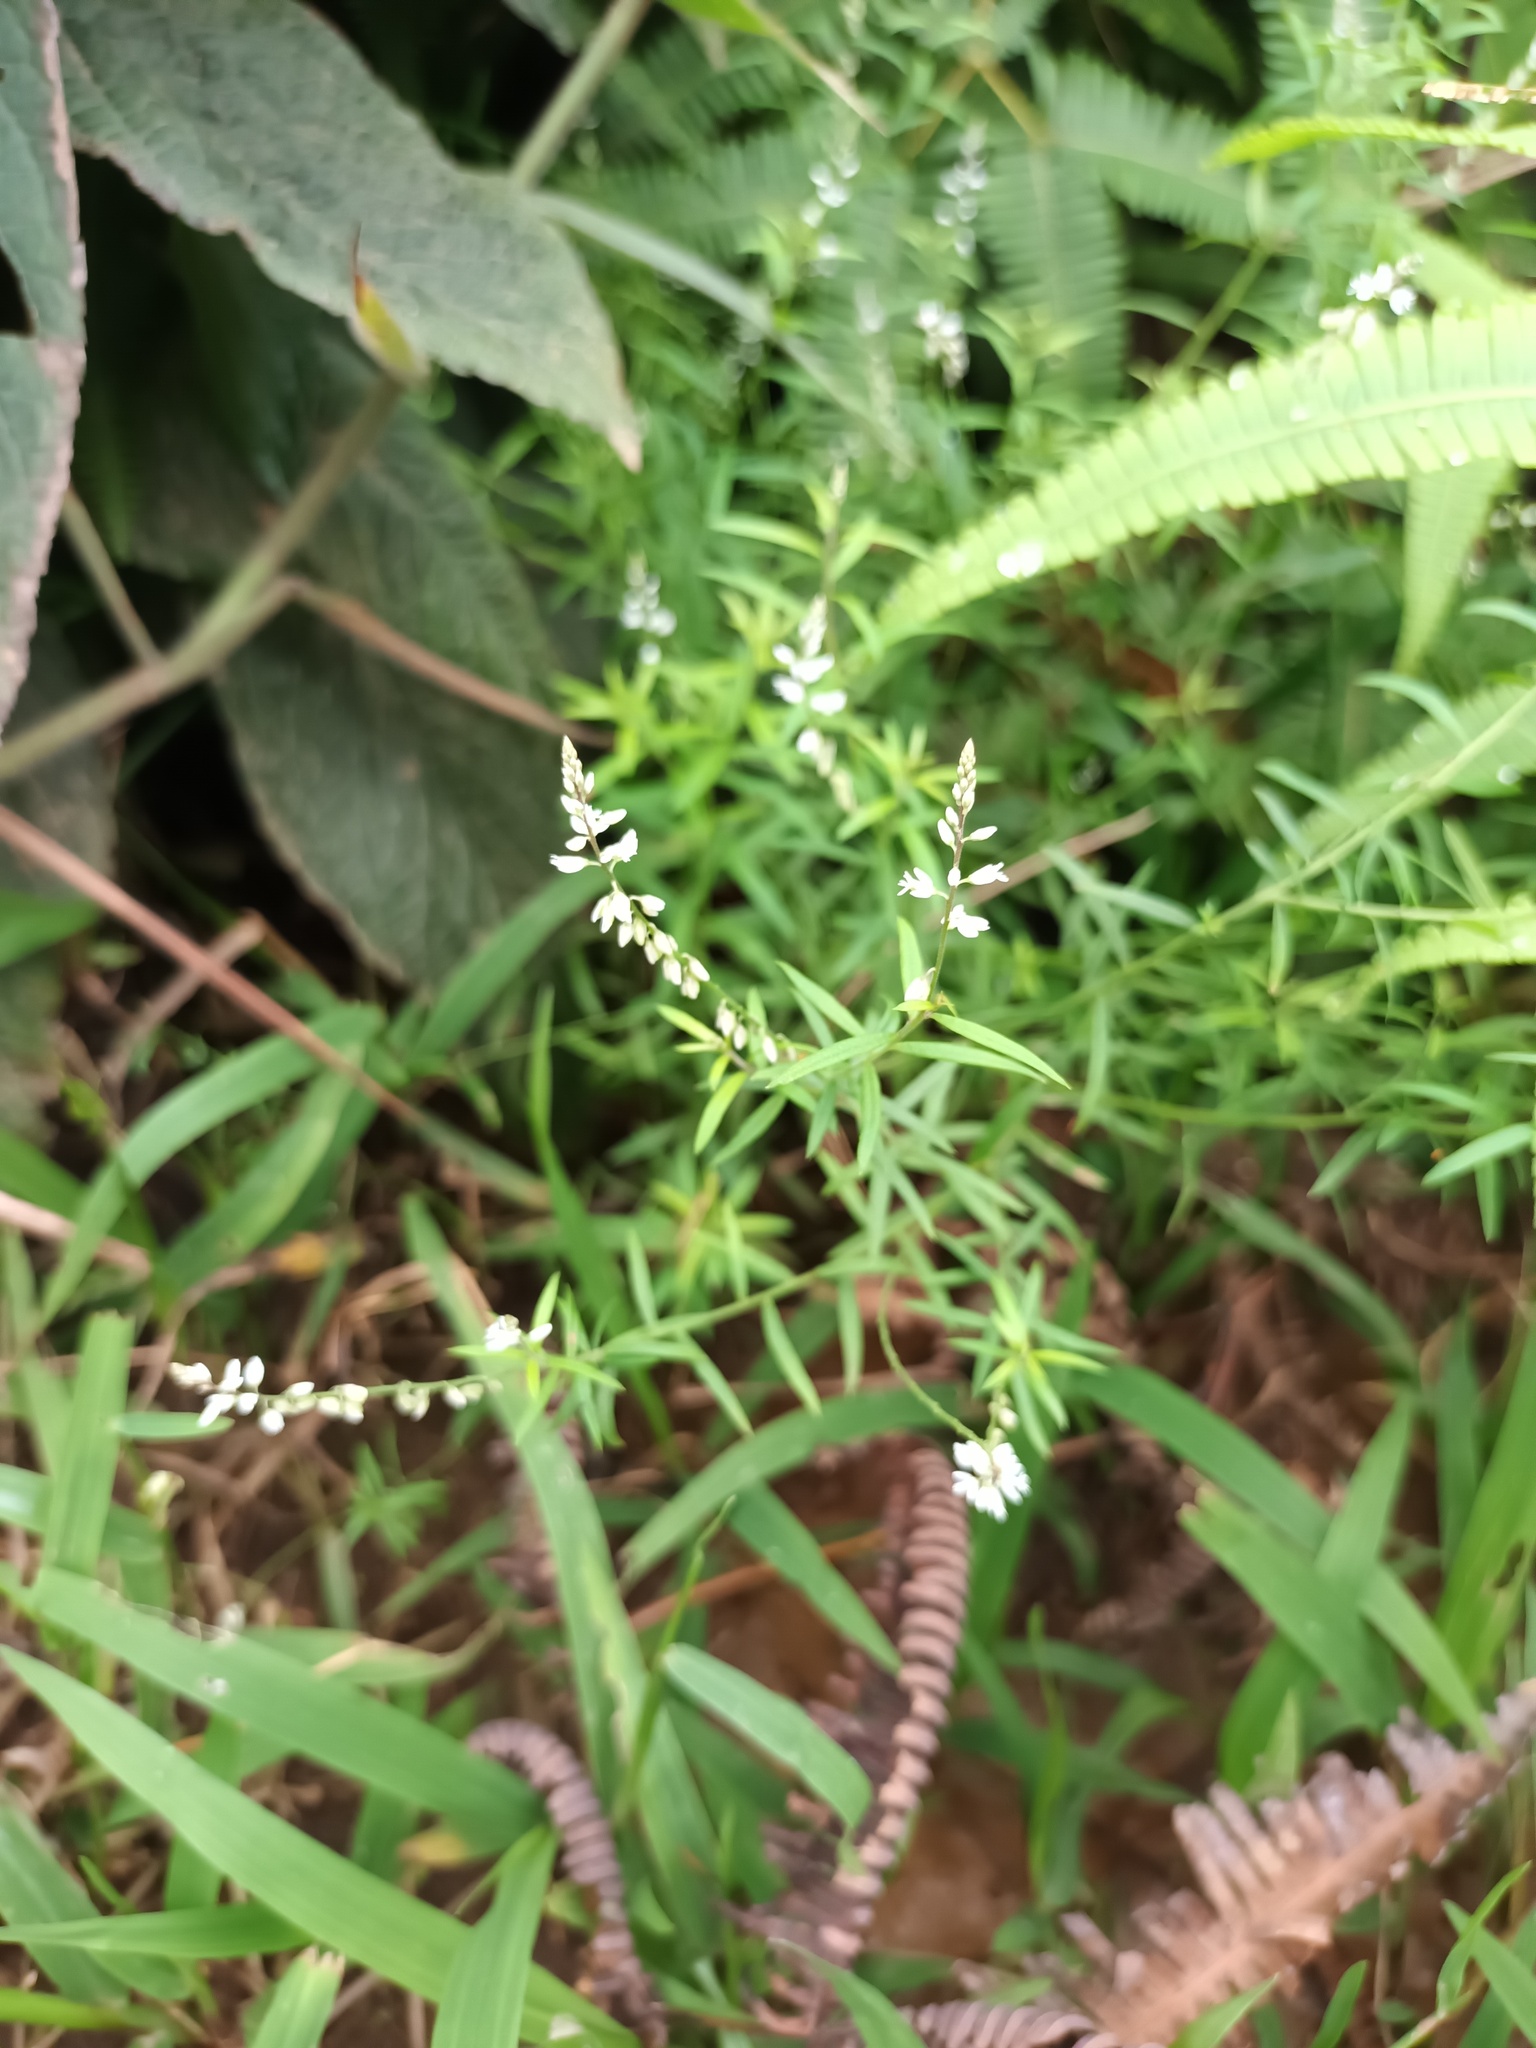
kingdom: Plantae
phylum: Tracheophyta
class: Magnoliopsida
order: Fabales
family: Polygalaceae
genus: Polygala
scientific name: Polygala paniculata
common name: Orosne
